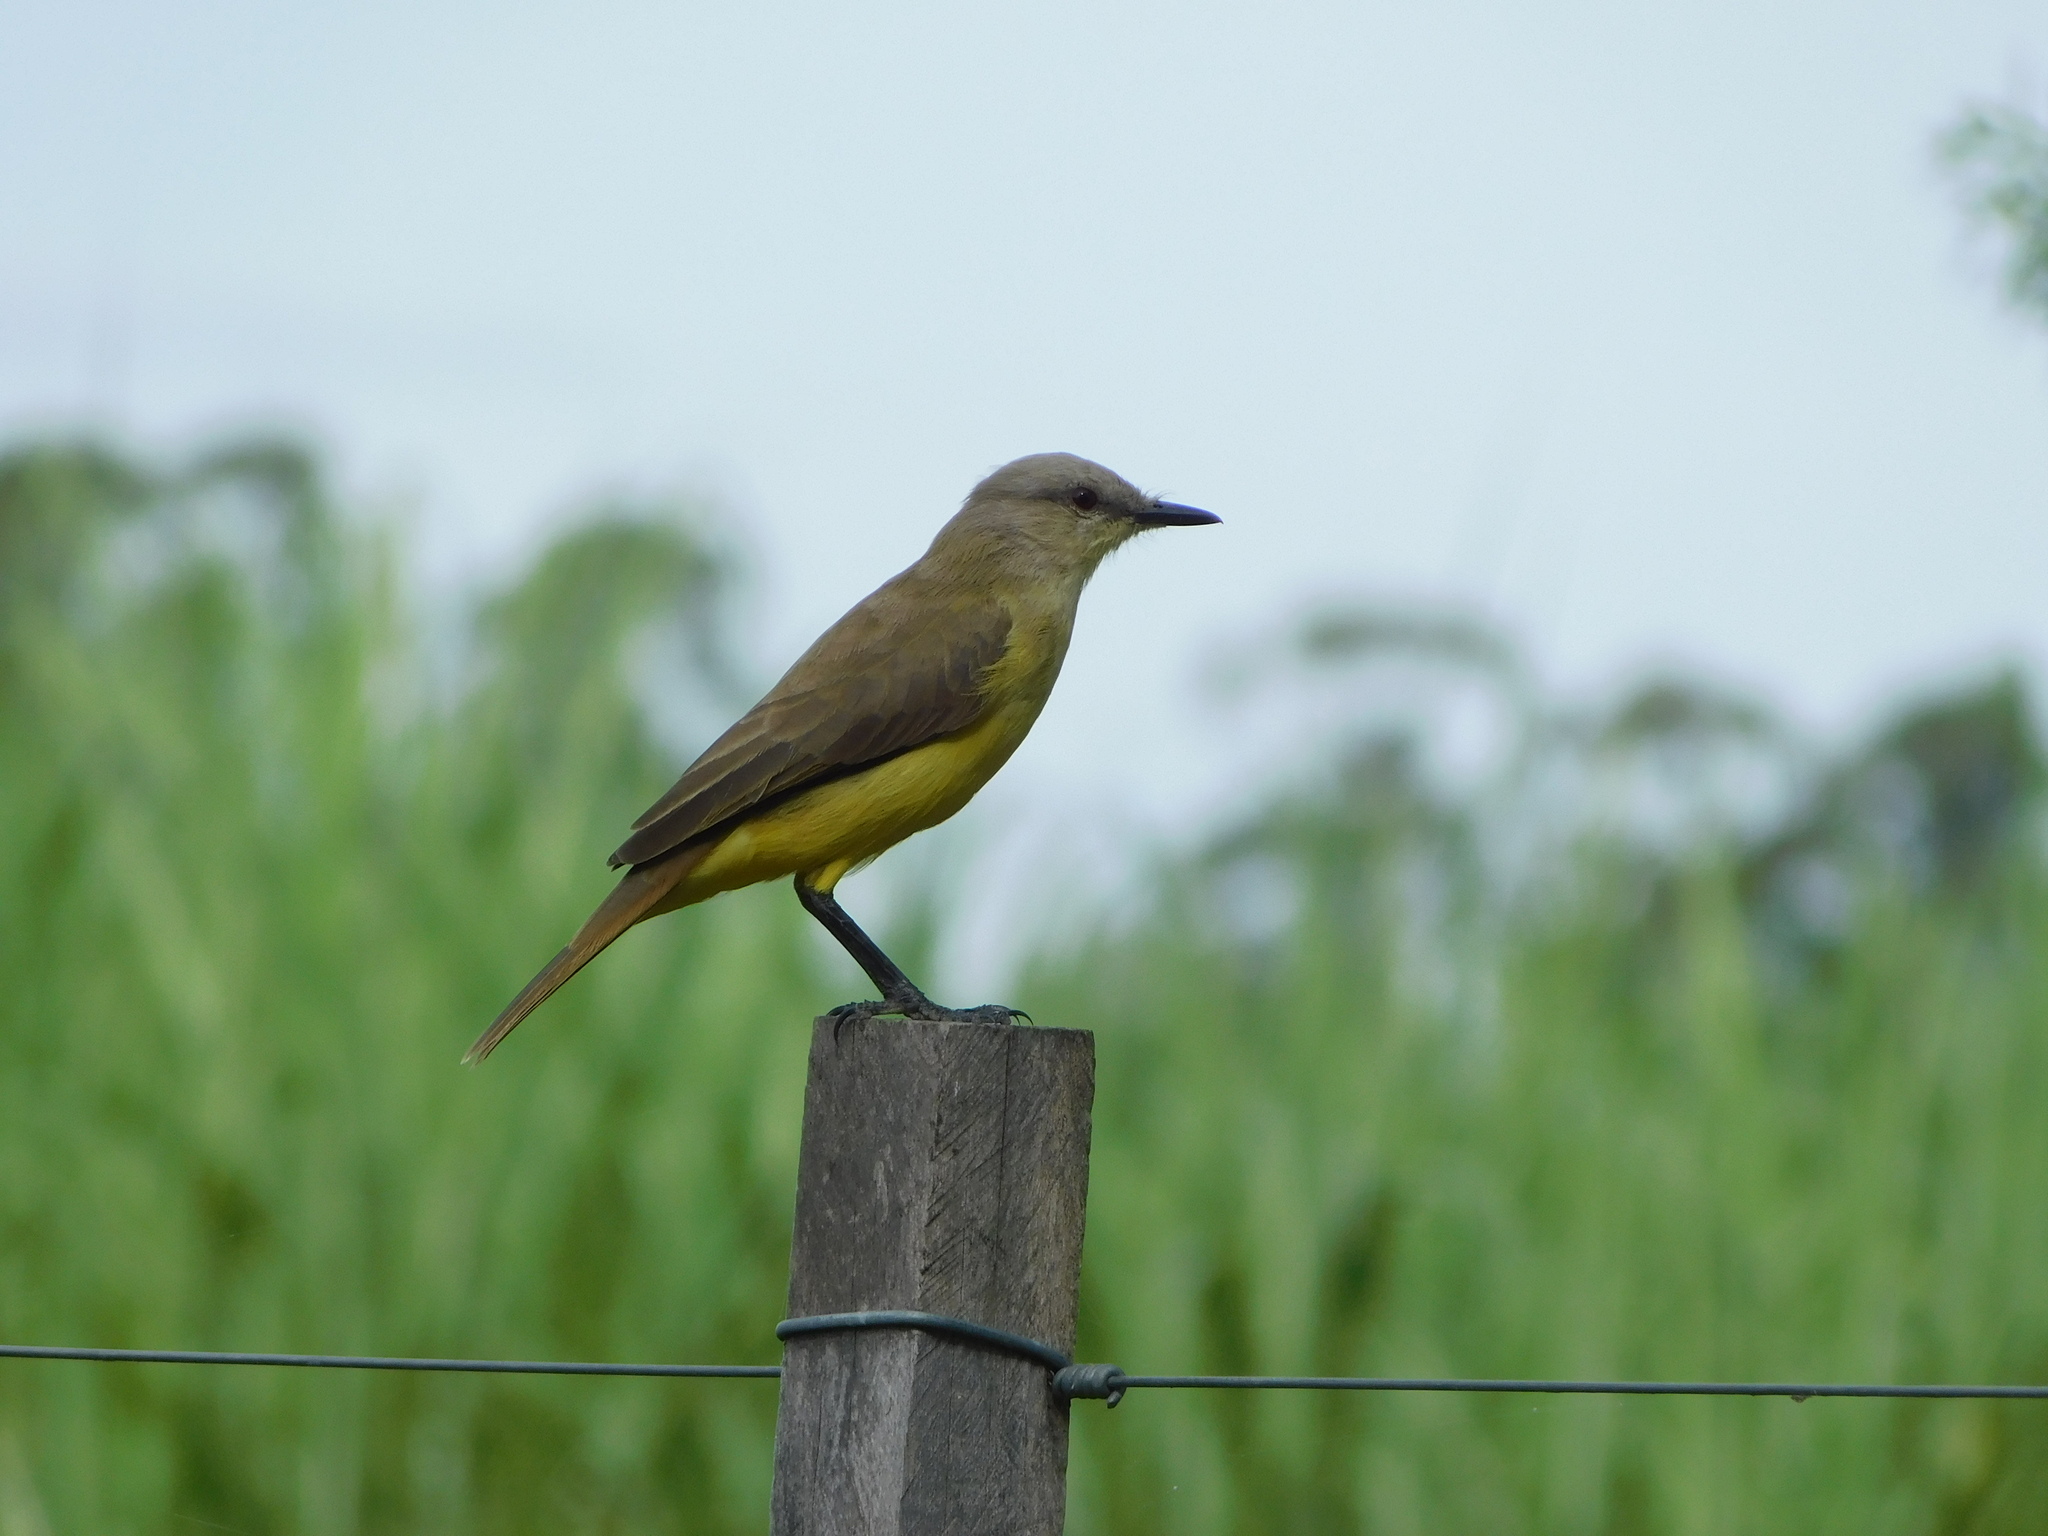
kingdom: Animalia
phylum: Chordata
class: Aves
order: Passeriformes
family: Tyrannidae
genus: Machetornis
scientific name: Machetornis rixosa
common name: Cattle tyrant
